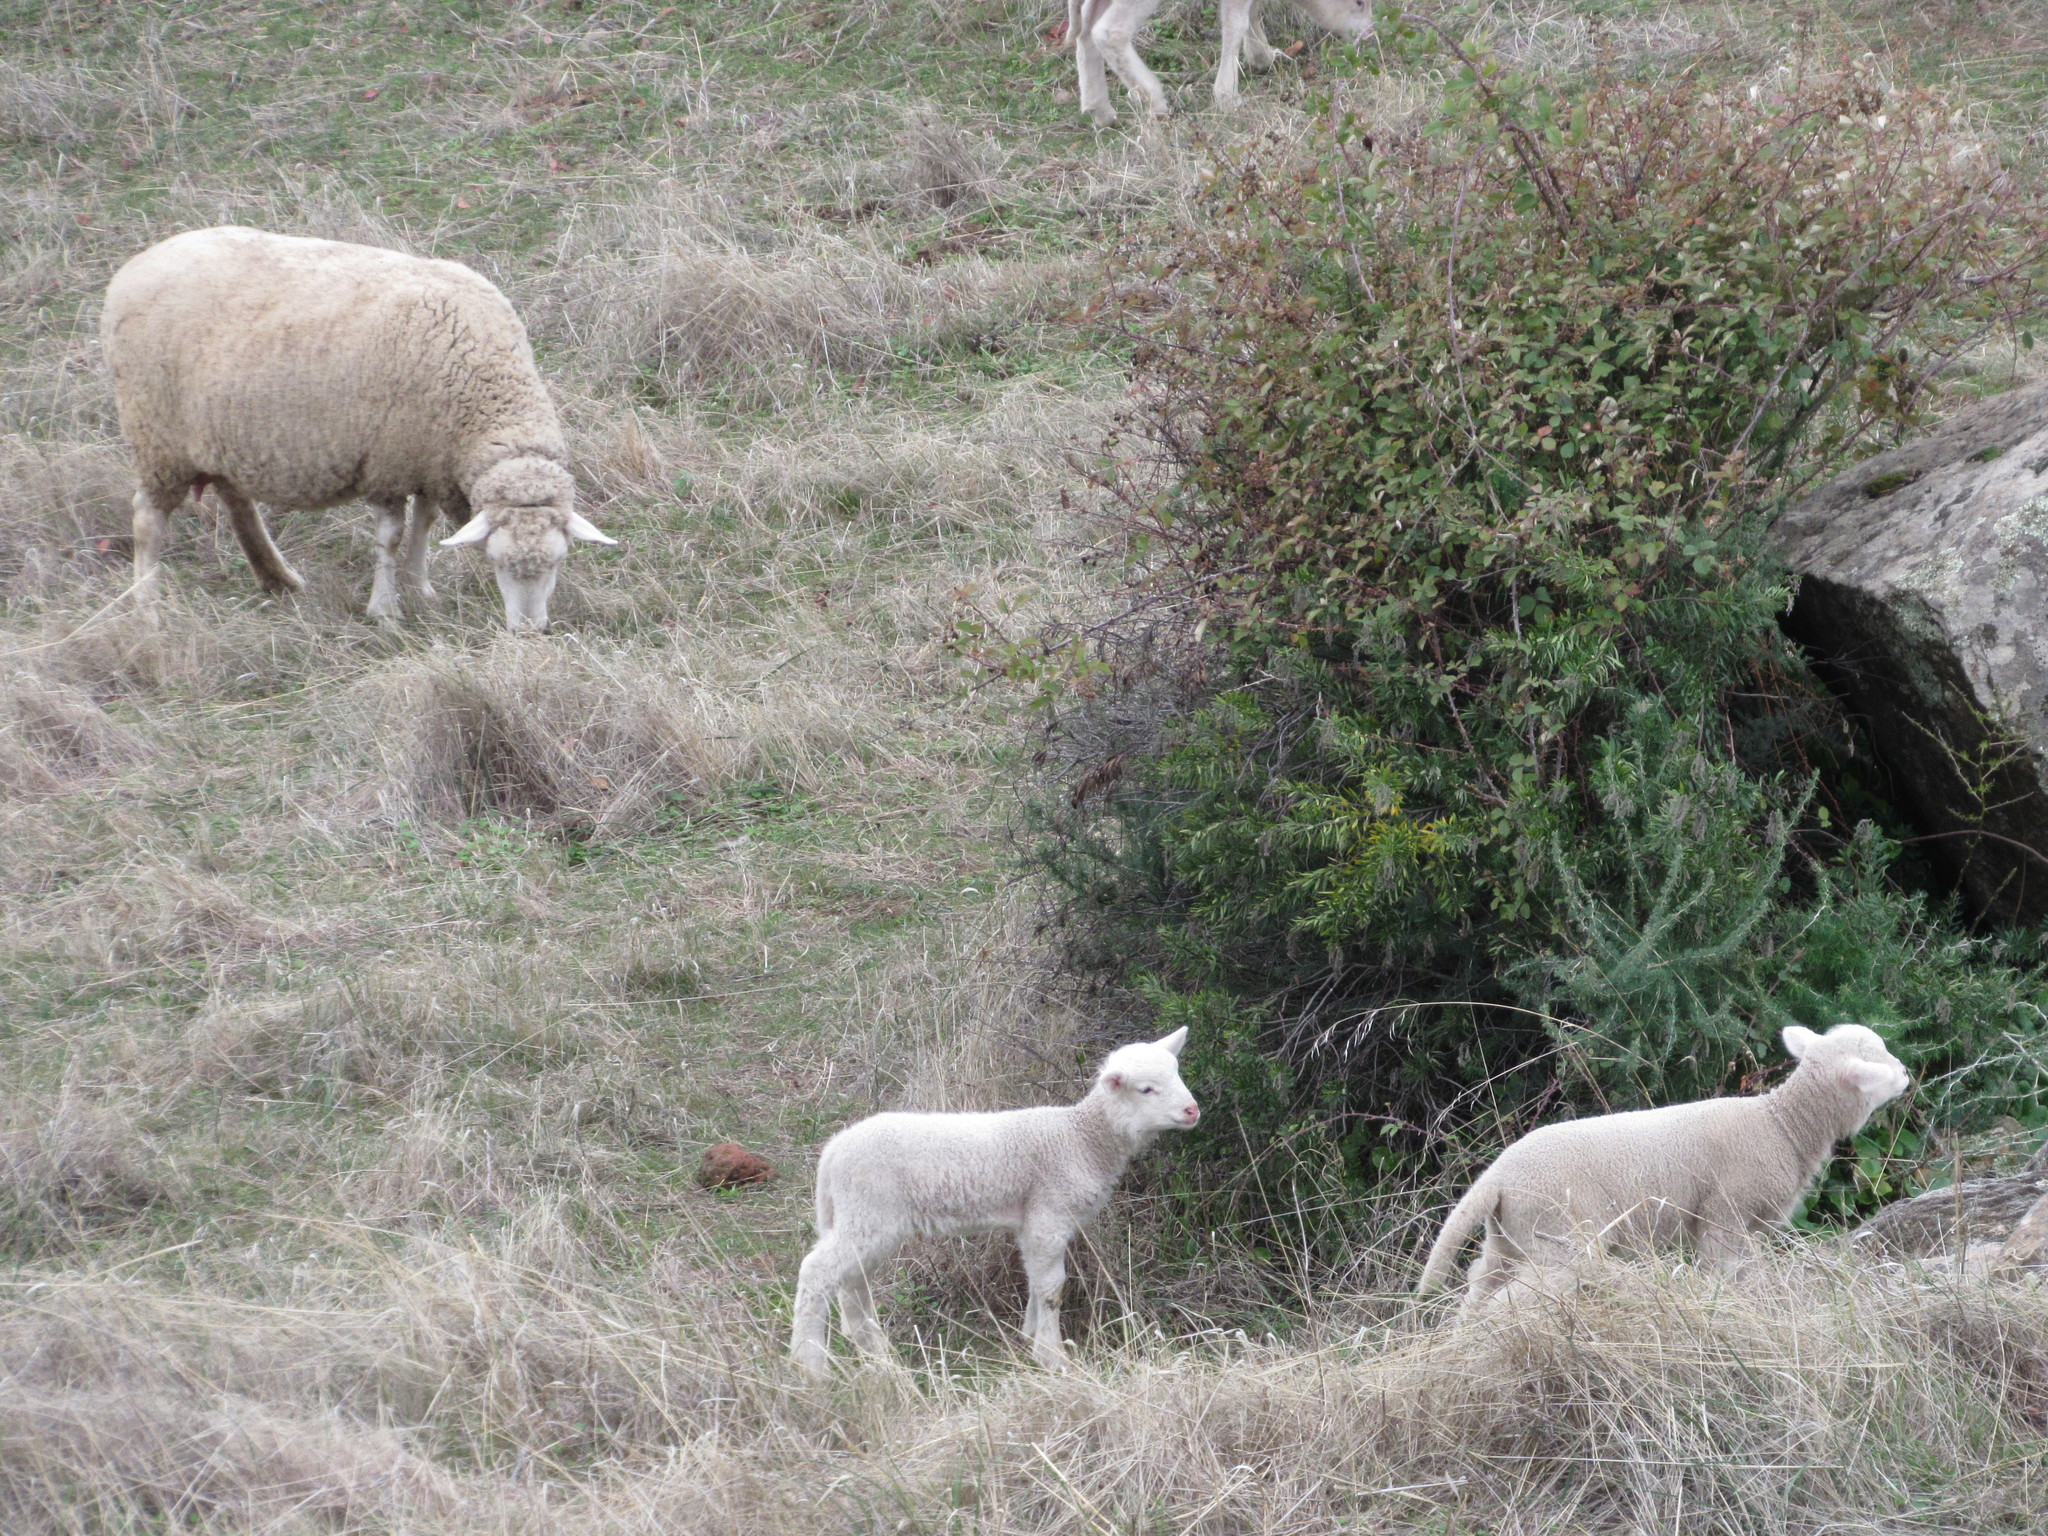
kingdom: Plantae
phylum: Tracheophyta
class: Liliopsida
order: Asparagales
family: Asparagaceae
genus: Asparagus
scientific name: Asparagus albus
